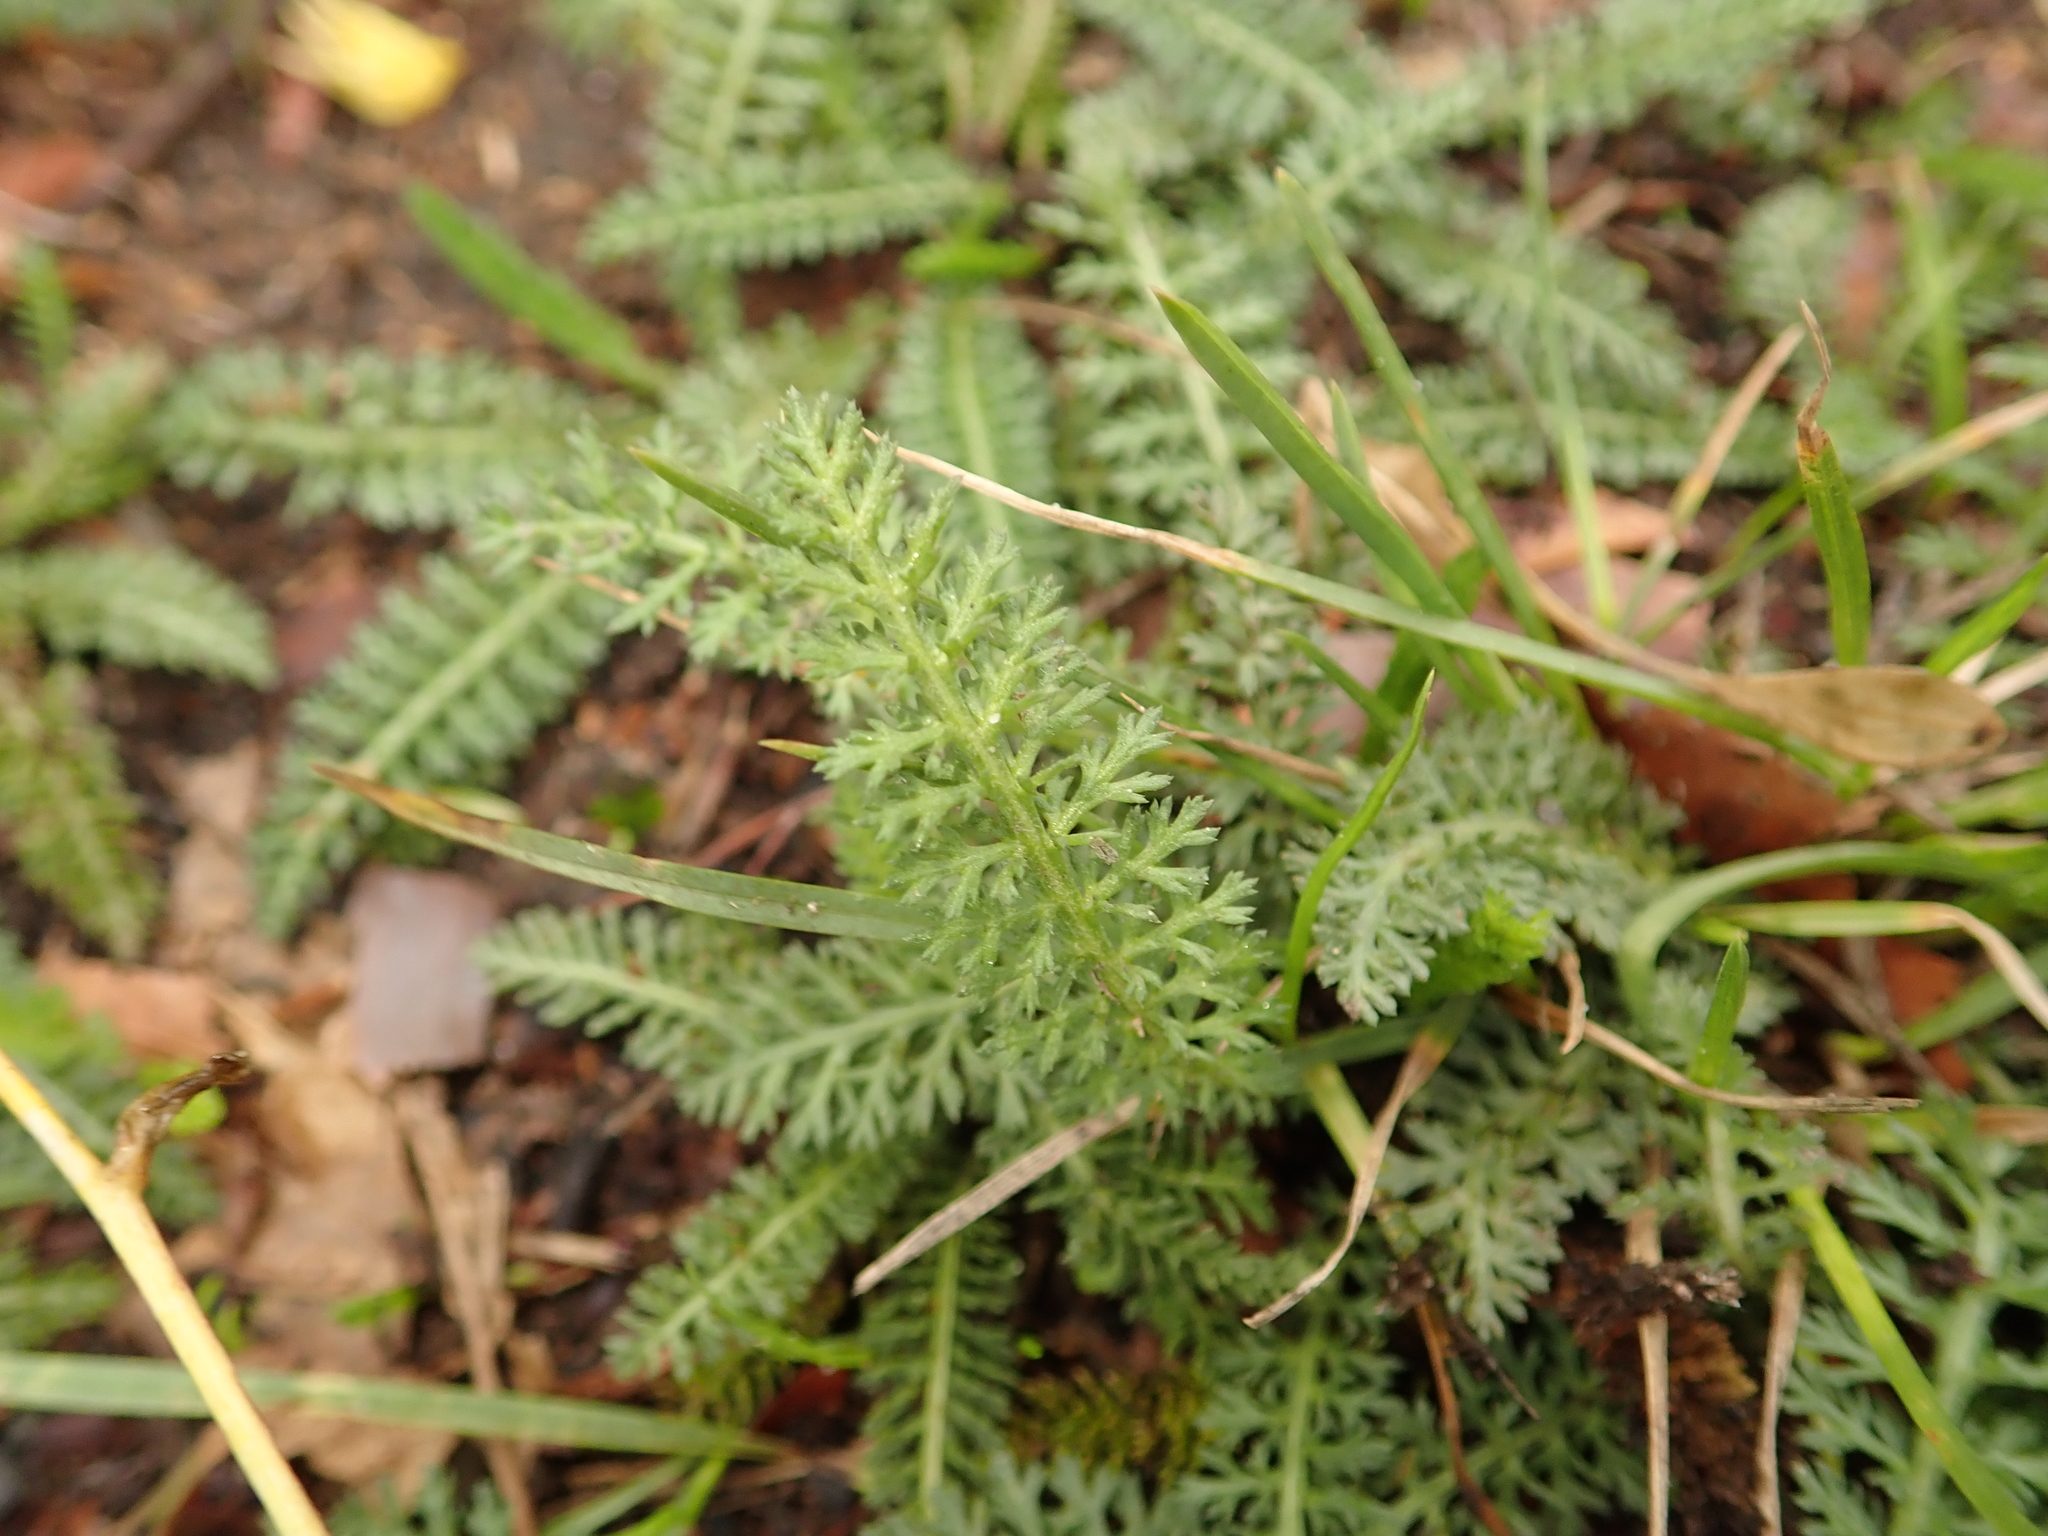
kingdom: Plantae
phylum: Tracheophyta
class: Magnoliopsida
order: Asterales
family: Asteraceae
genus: Achillea
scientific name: Achillea millefolium
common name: Yarrow
